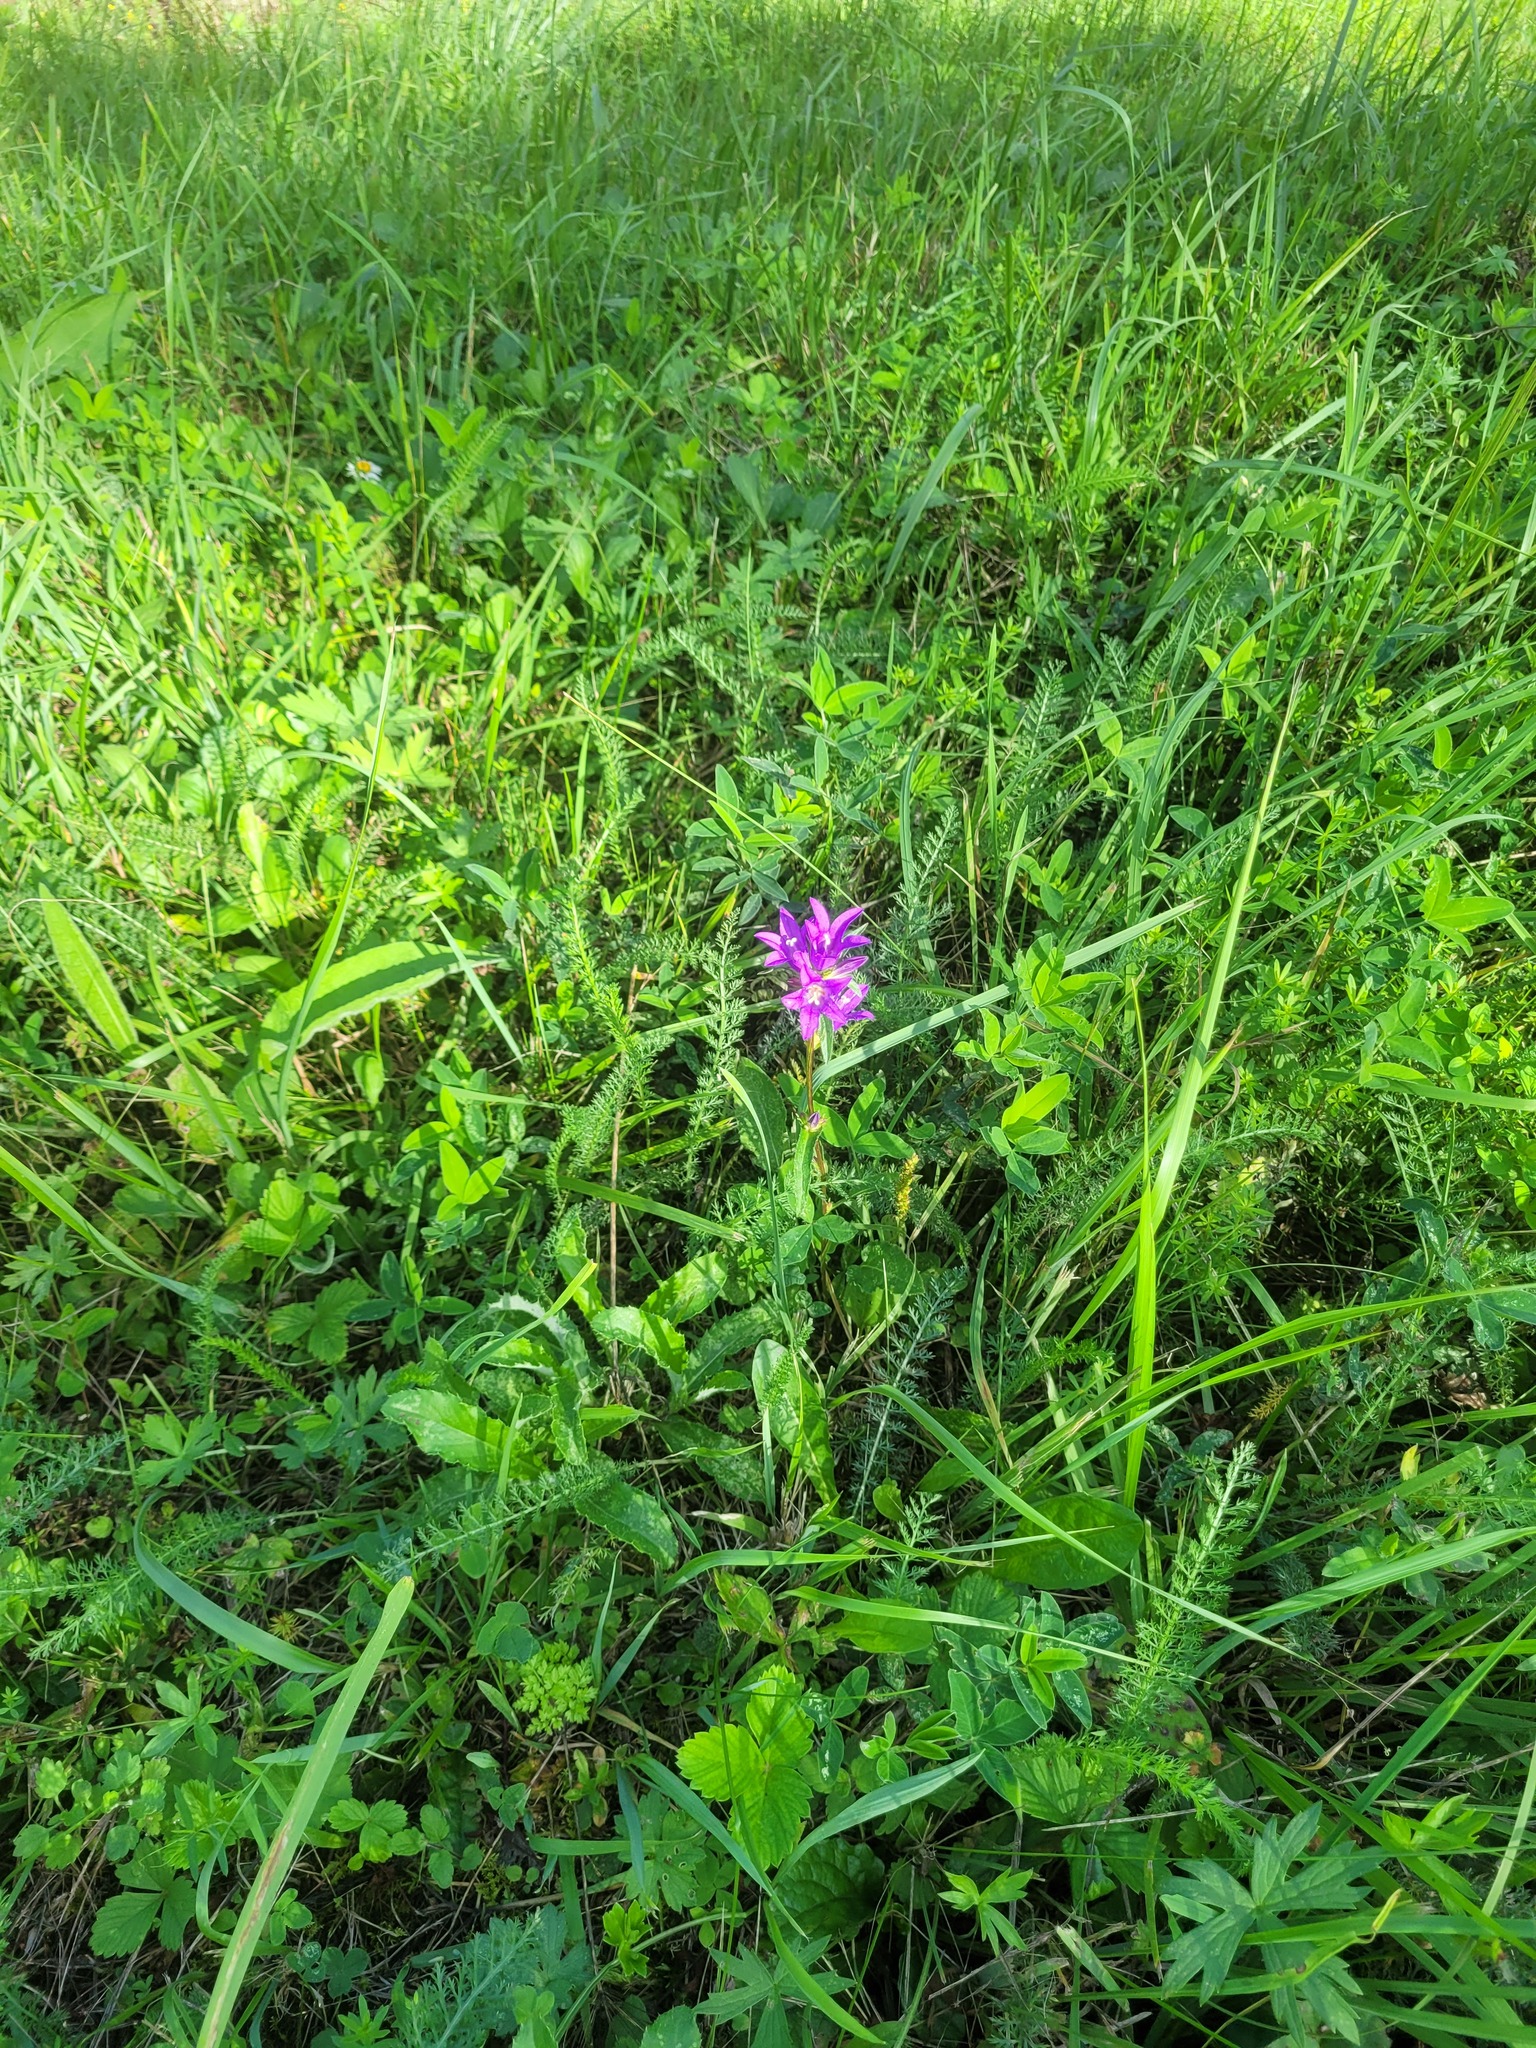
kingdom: Plantae
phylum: Tracheophyta
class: Magnoliopsida
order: Asterales
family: Campanulaceae
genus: Campanula
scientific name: Campanula glomerata
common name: Clustered bellflower
